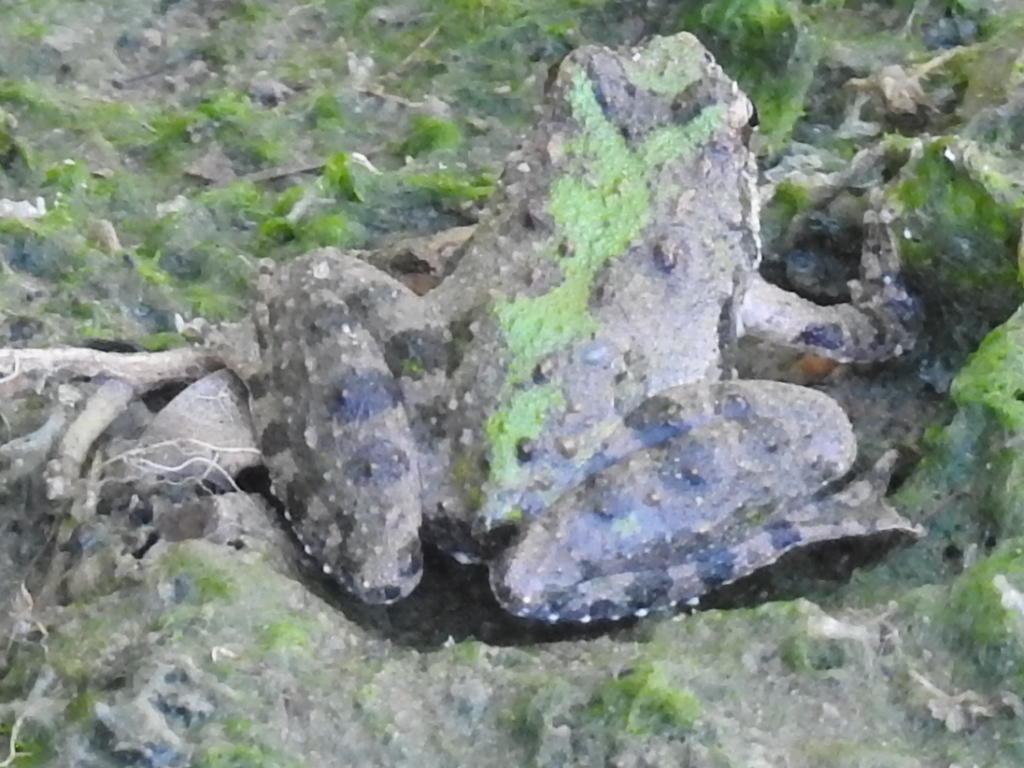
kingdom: Animalia
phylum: Chordata
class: Amphibia
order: Anura
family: Hylidae
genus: Acris
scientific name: Acris blanchardi
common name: Blanchard's cricket frog
